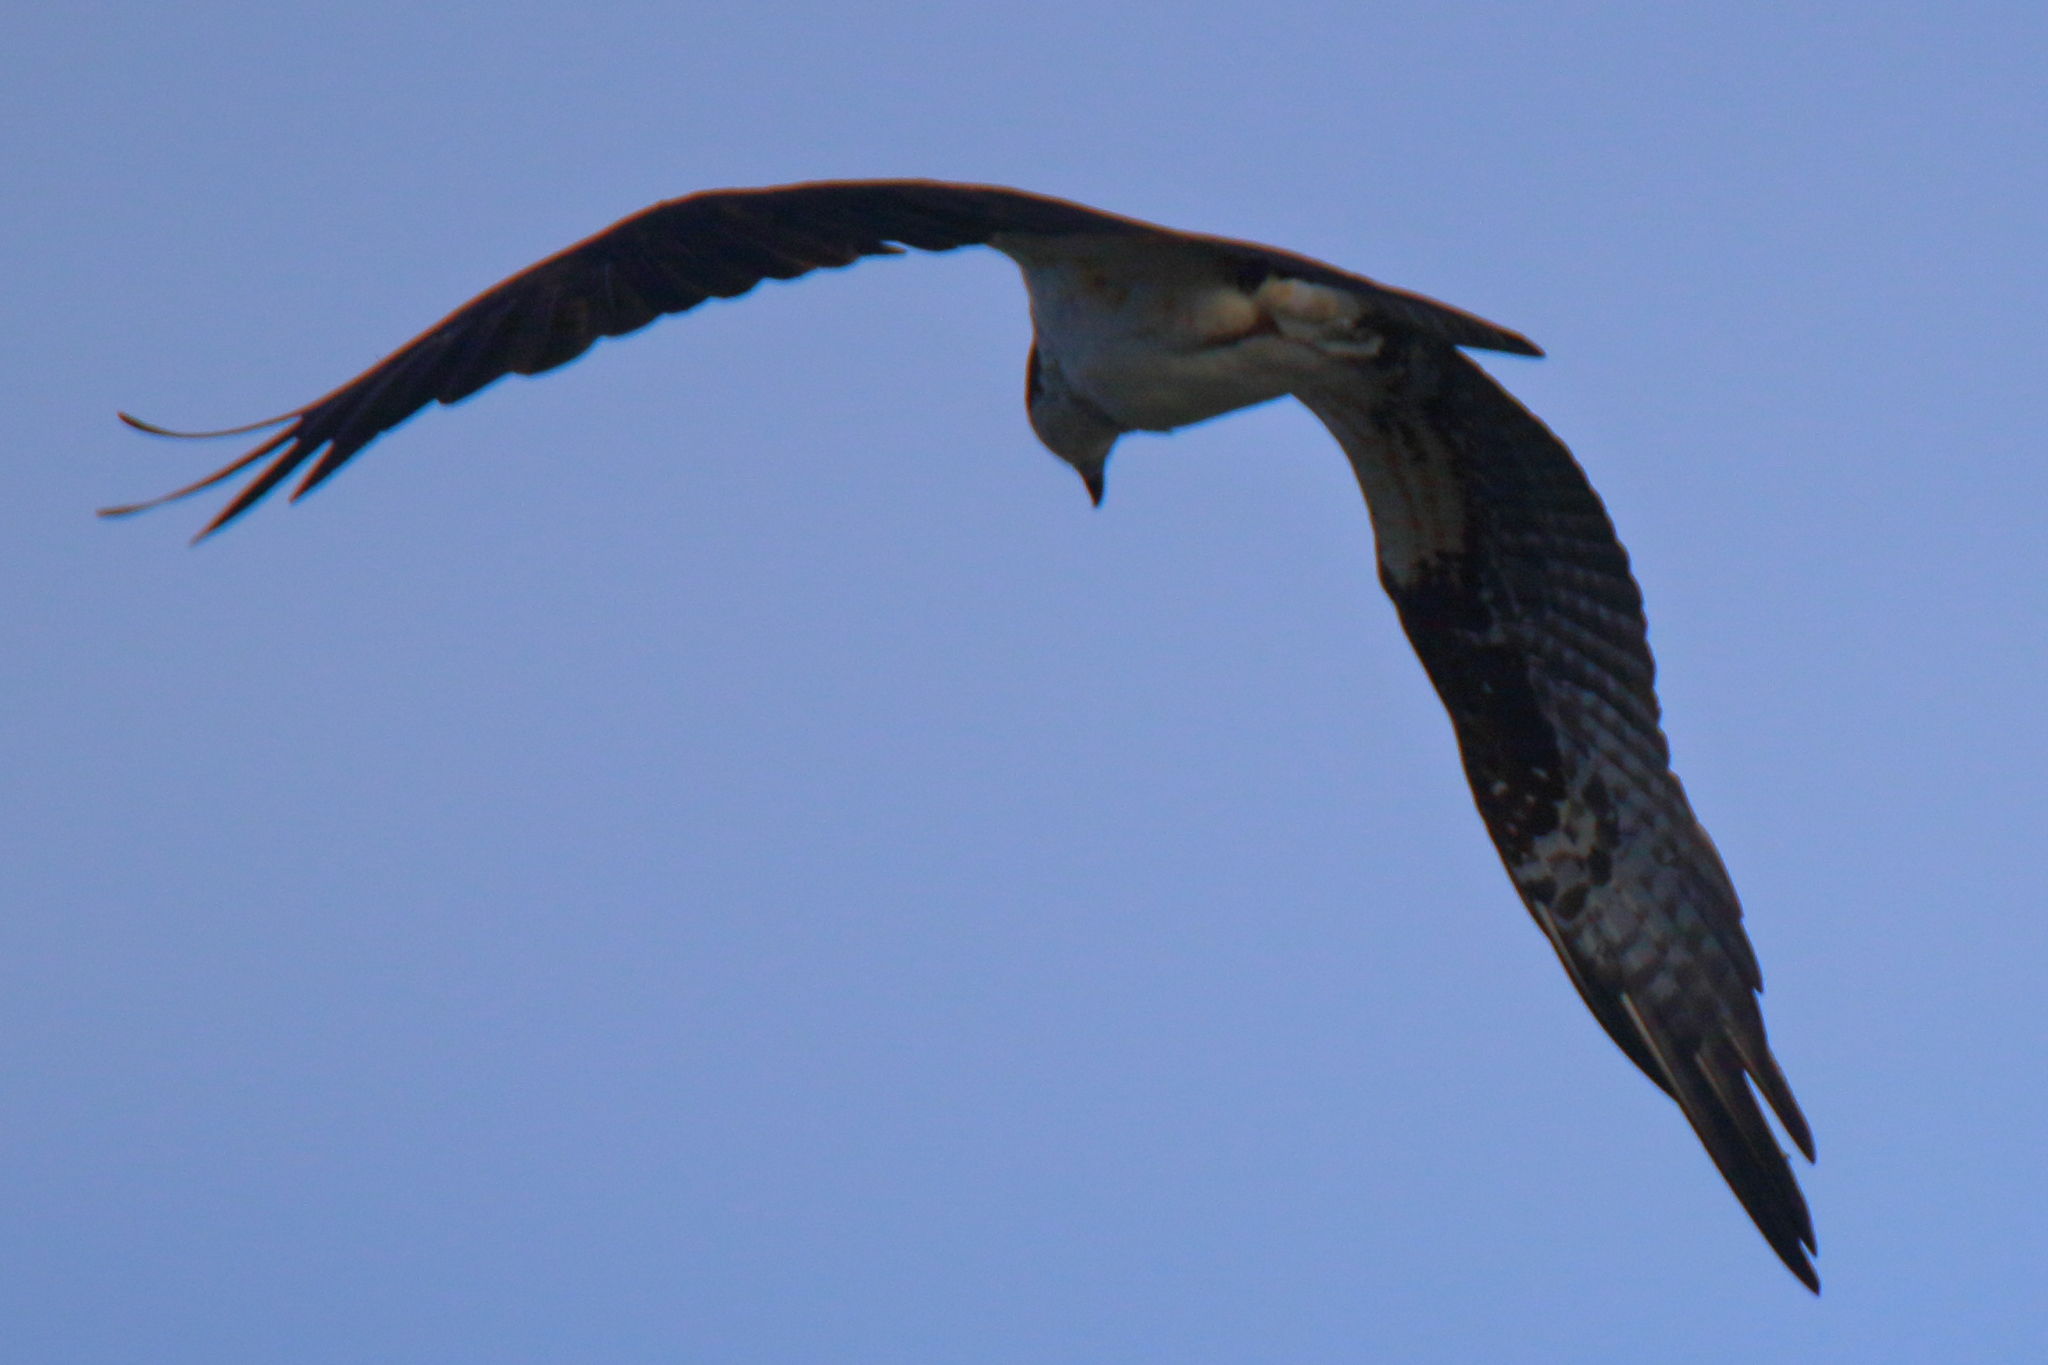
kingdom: Animalia
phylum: Chordata
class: Aves
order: Accipitriformes
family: Pandionidae
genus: Pandion
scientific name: Pandion haliaetus
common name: Osprey
